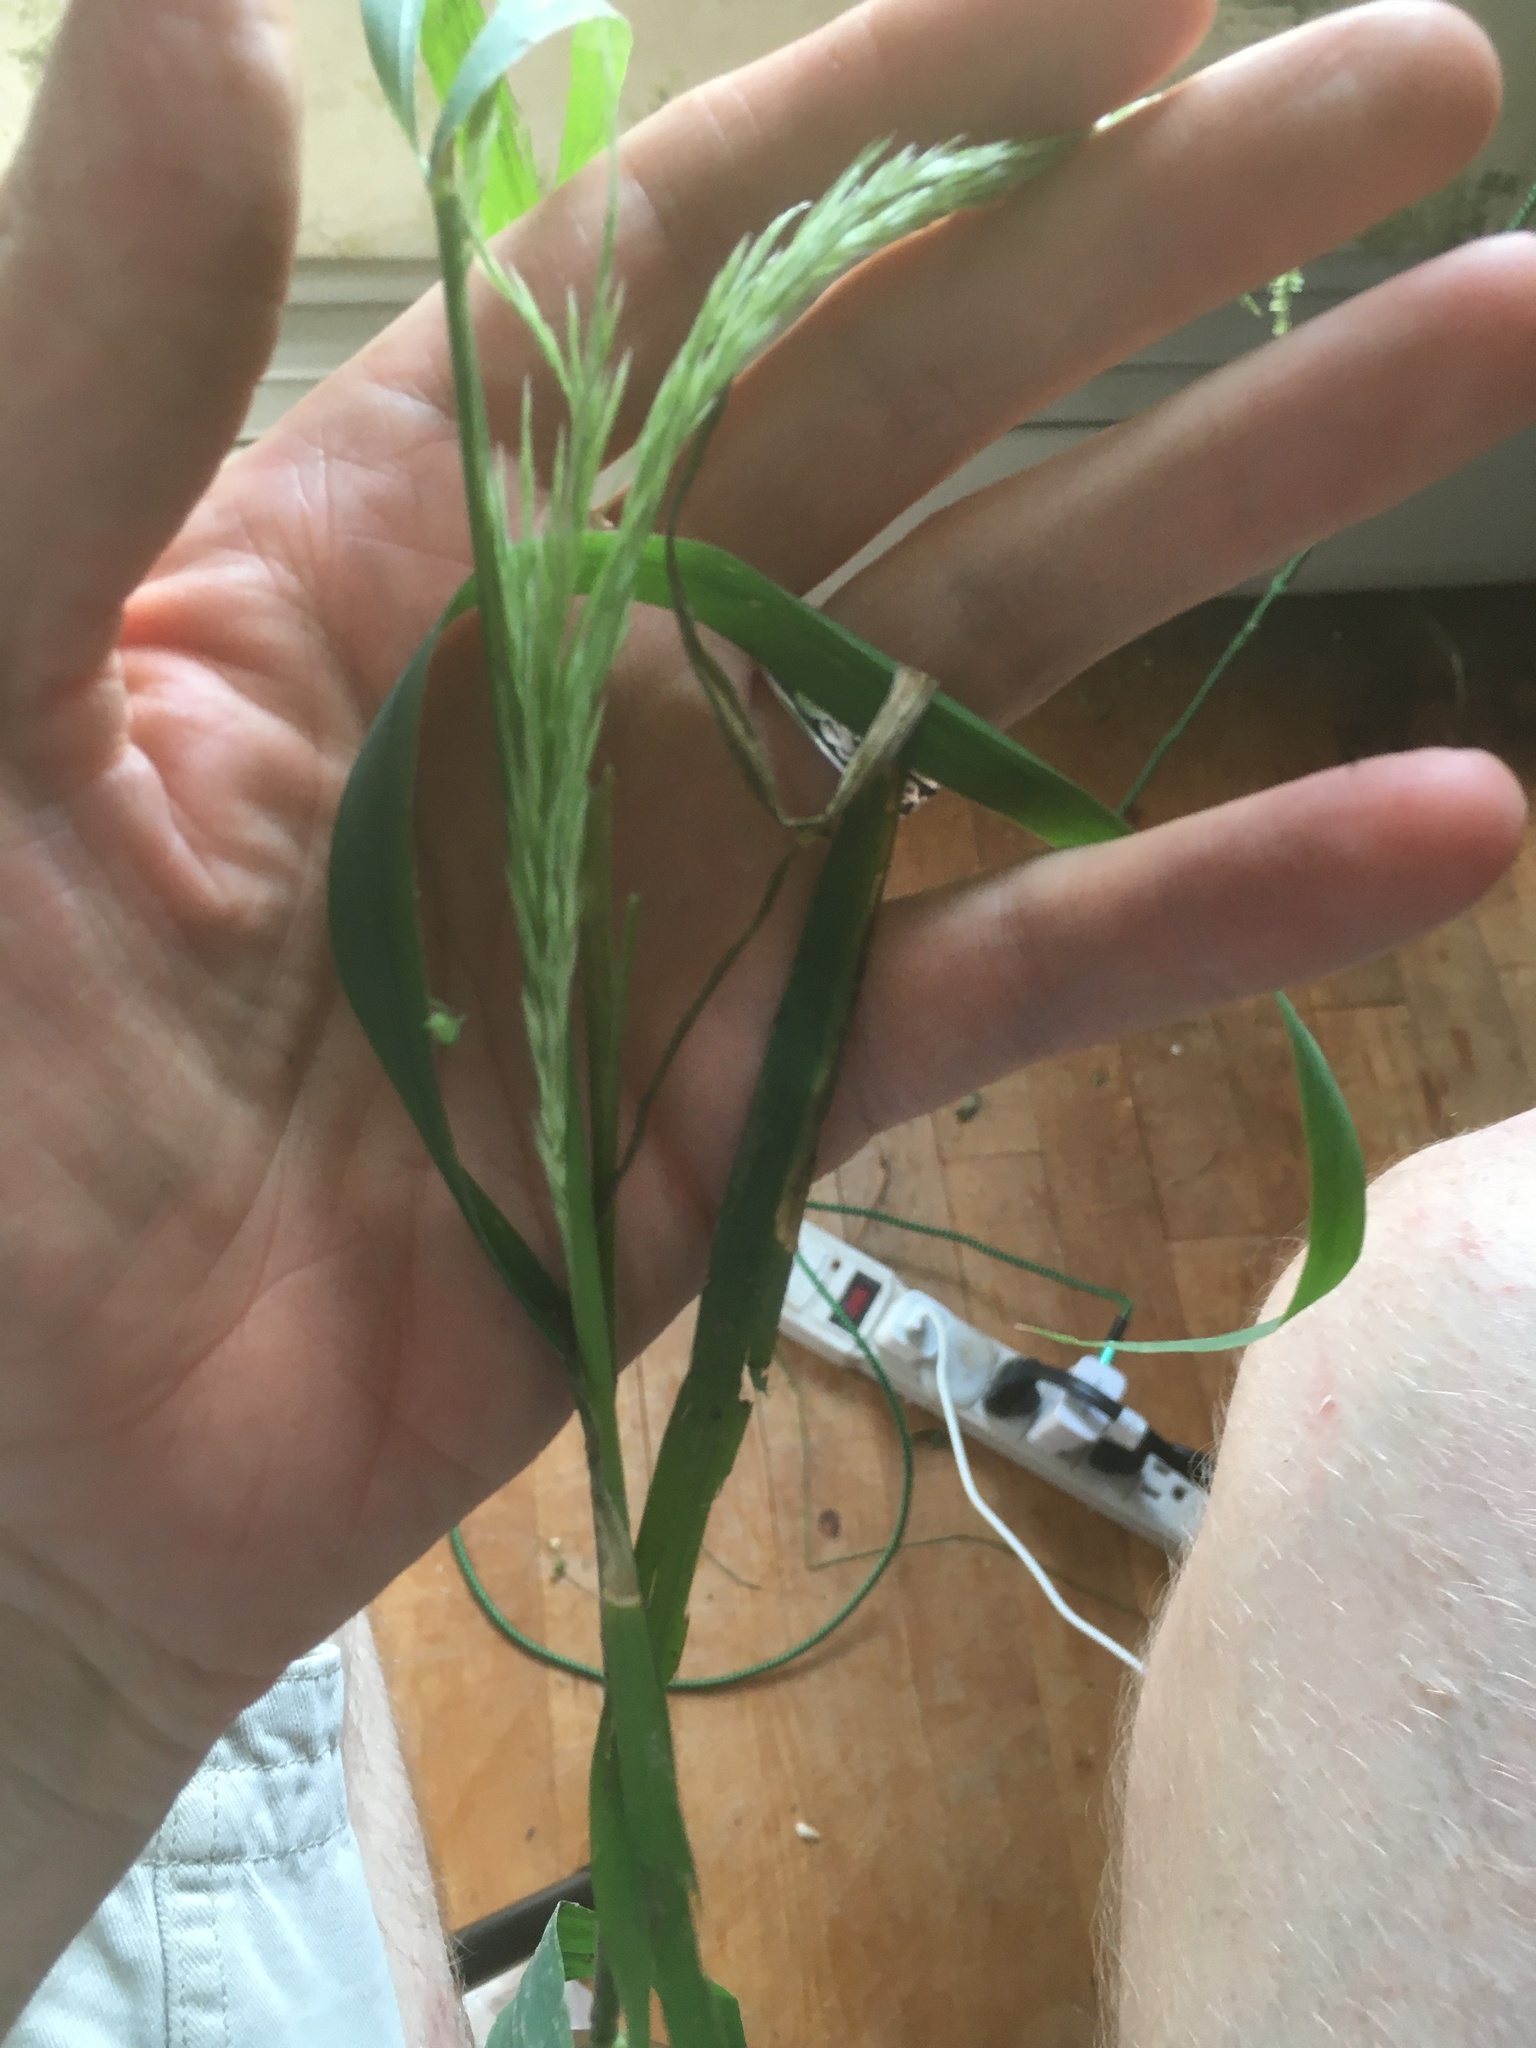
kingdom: Plantae
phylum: Tracheophyta
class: Liliopsida
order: Poales
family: Poaceae
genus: Cinna
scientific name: Cinna arundinacea
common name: Stout woodreed
